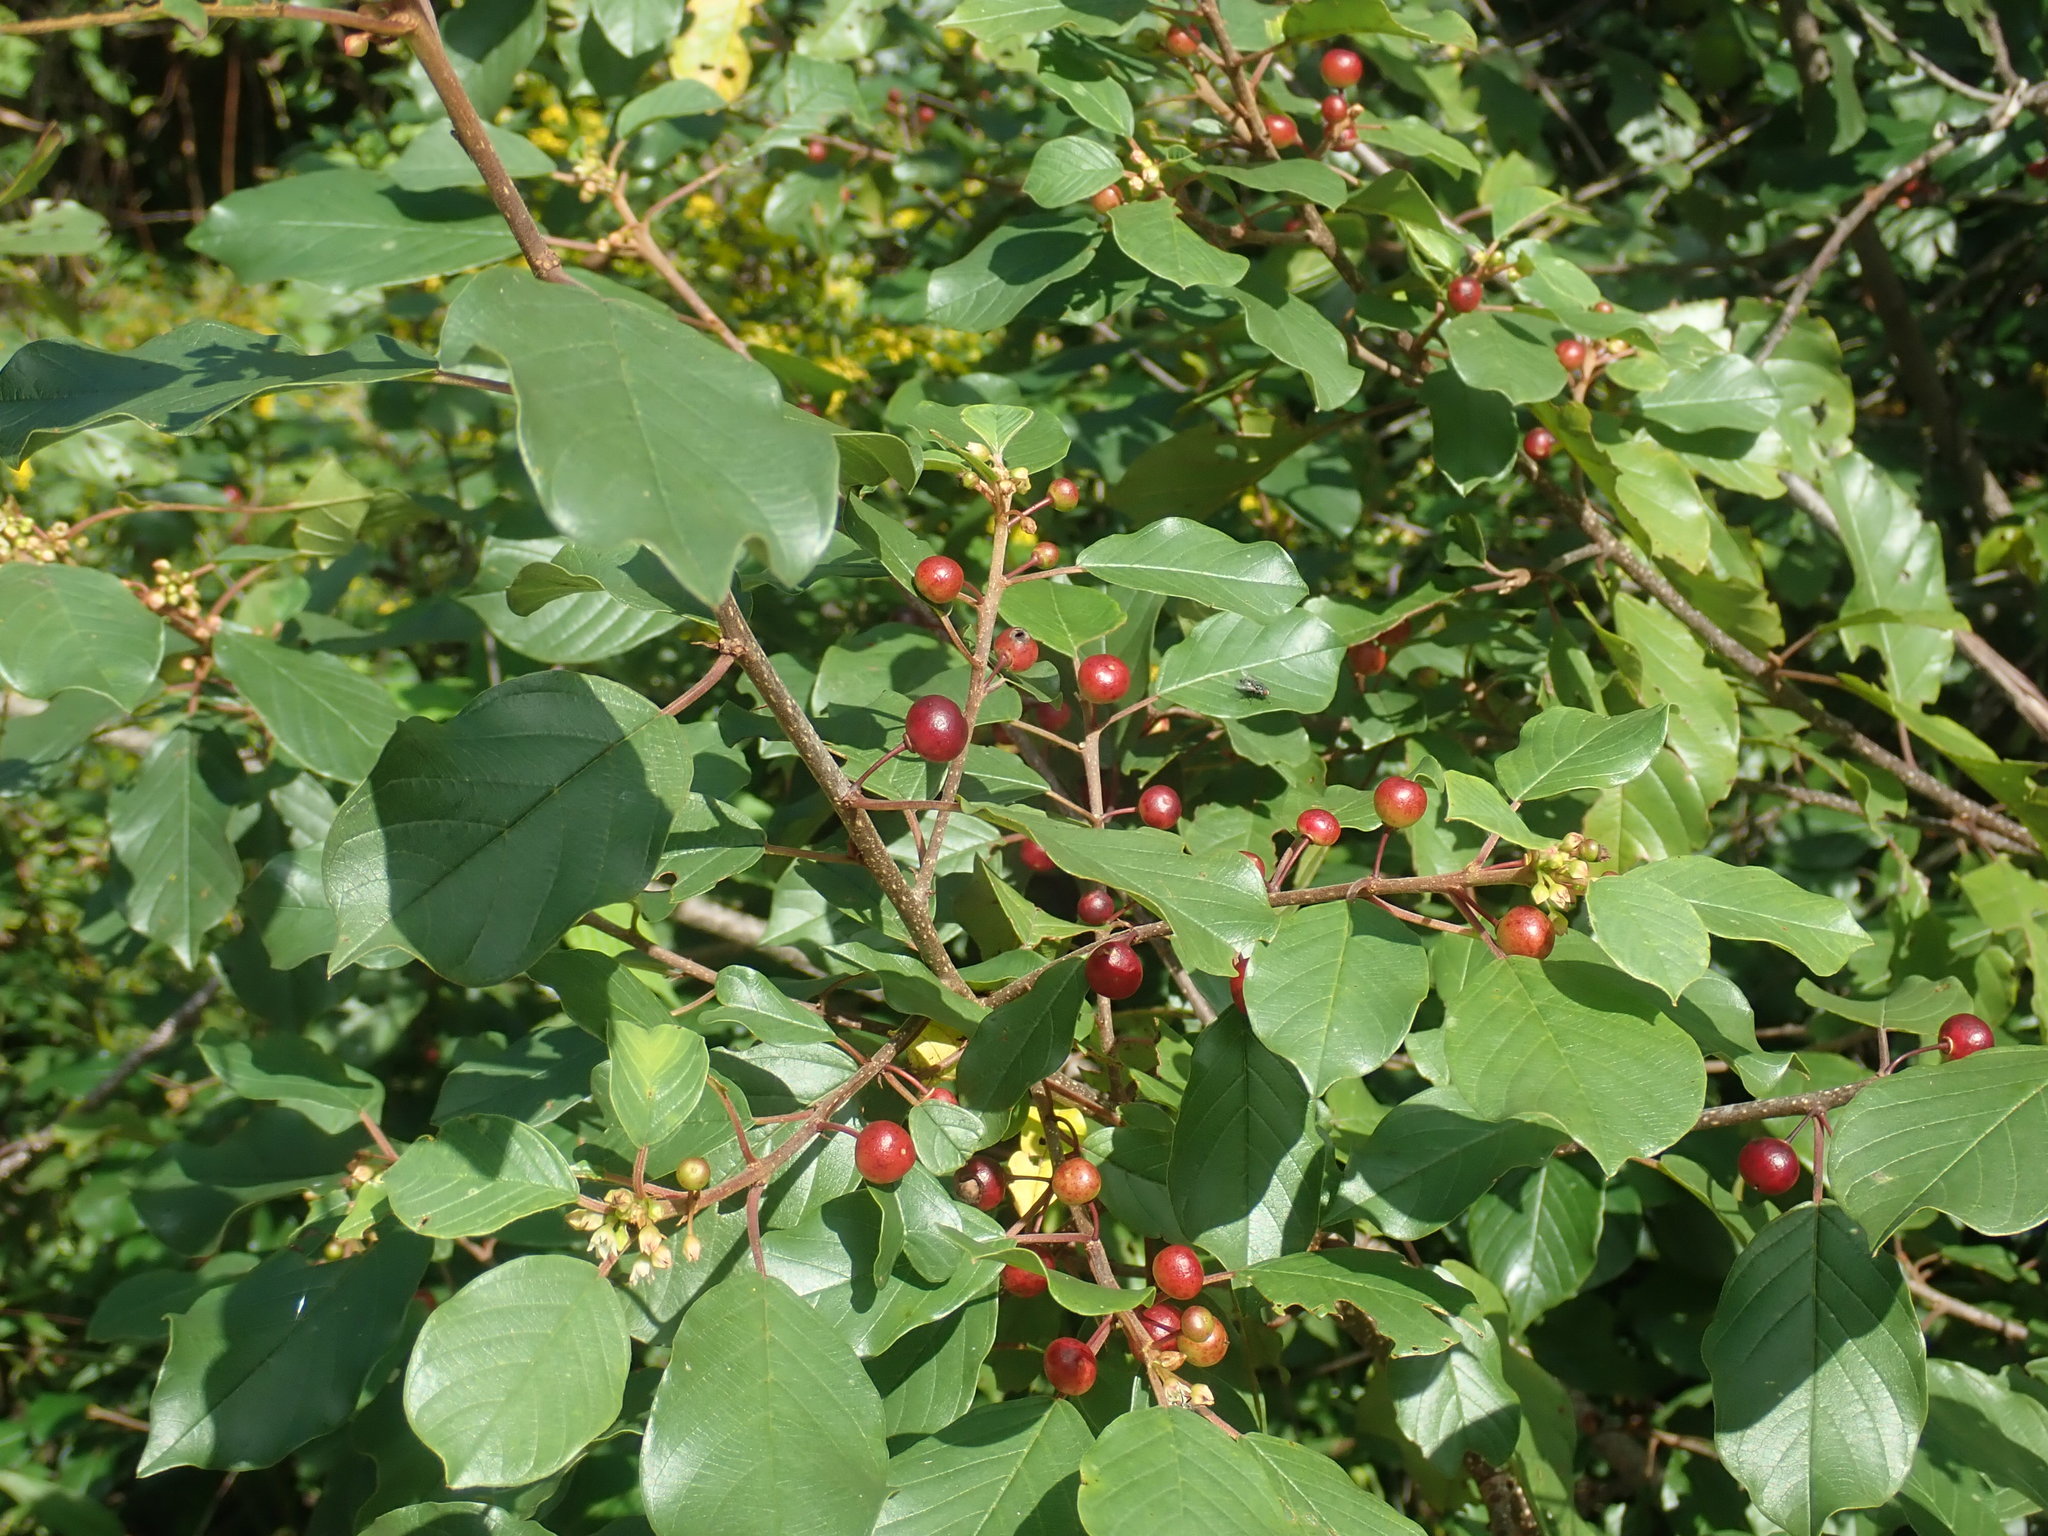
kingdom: Plantae
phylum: Tracheophyta
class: Magnoliopsida
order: Rosales
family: Rhamnaceae
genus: Frangula
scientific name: Frangula alnus
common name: Alder buckthorn
